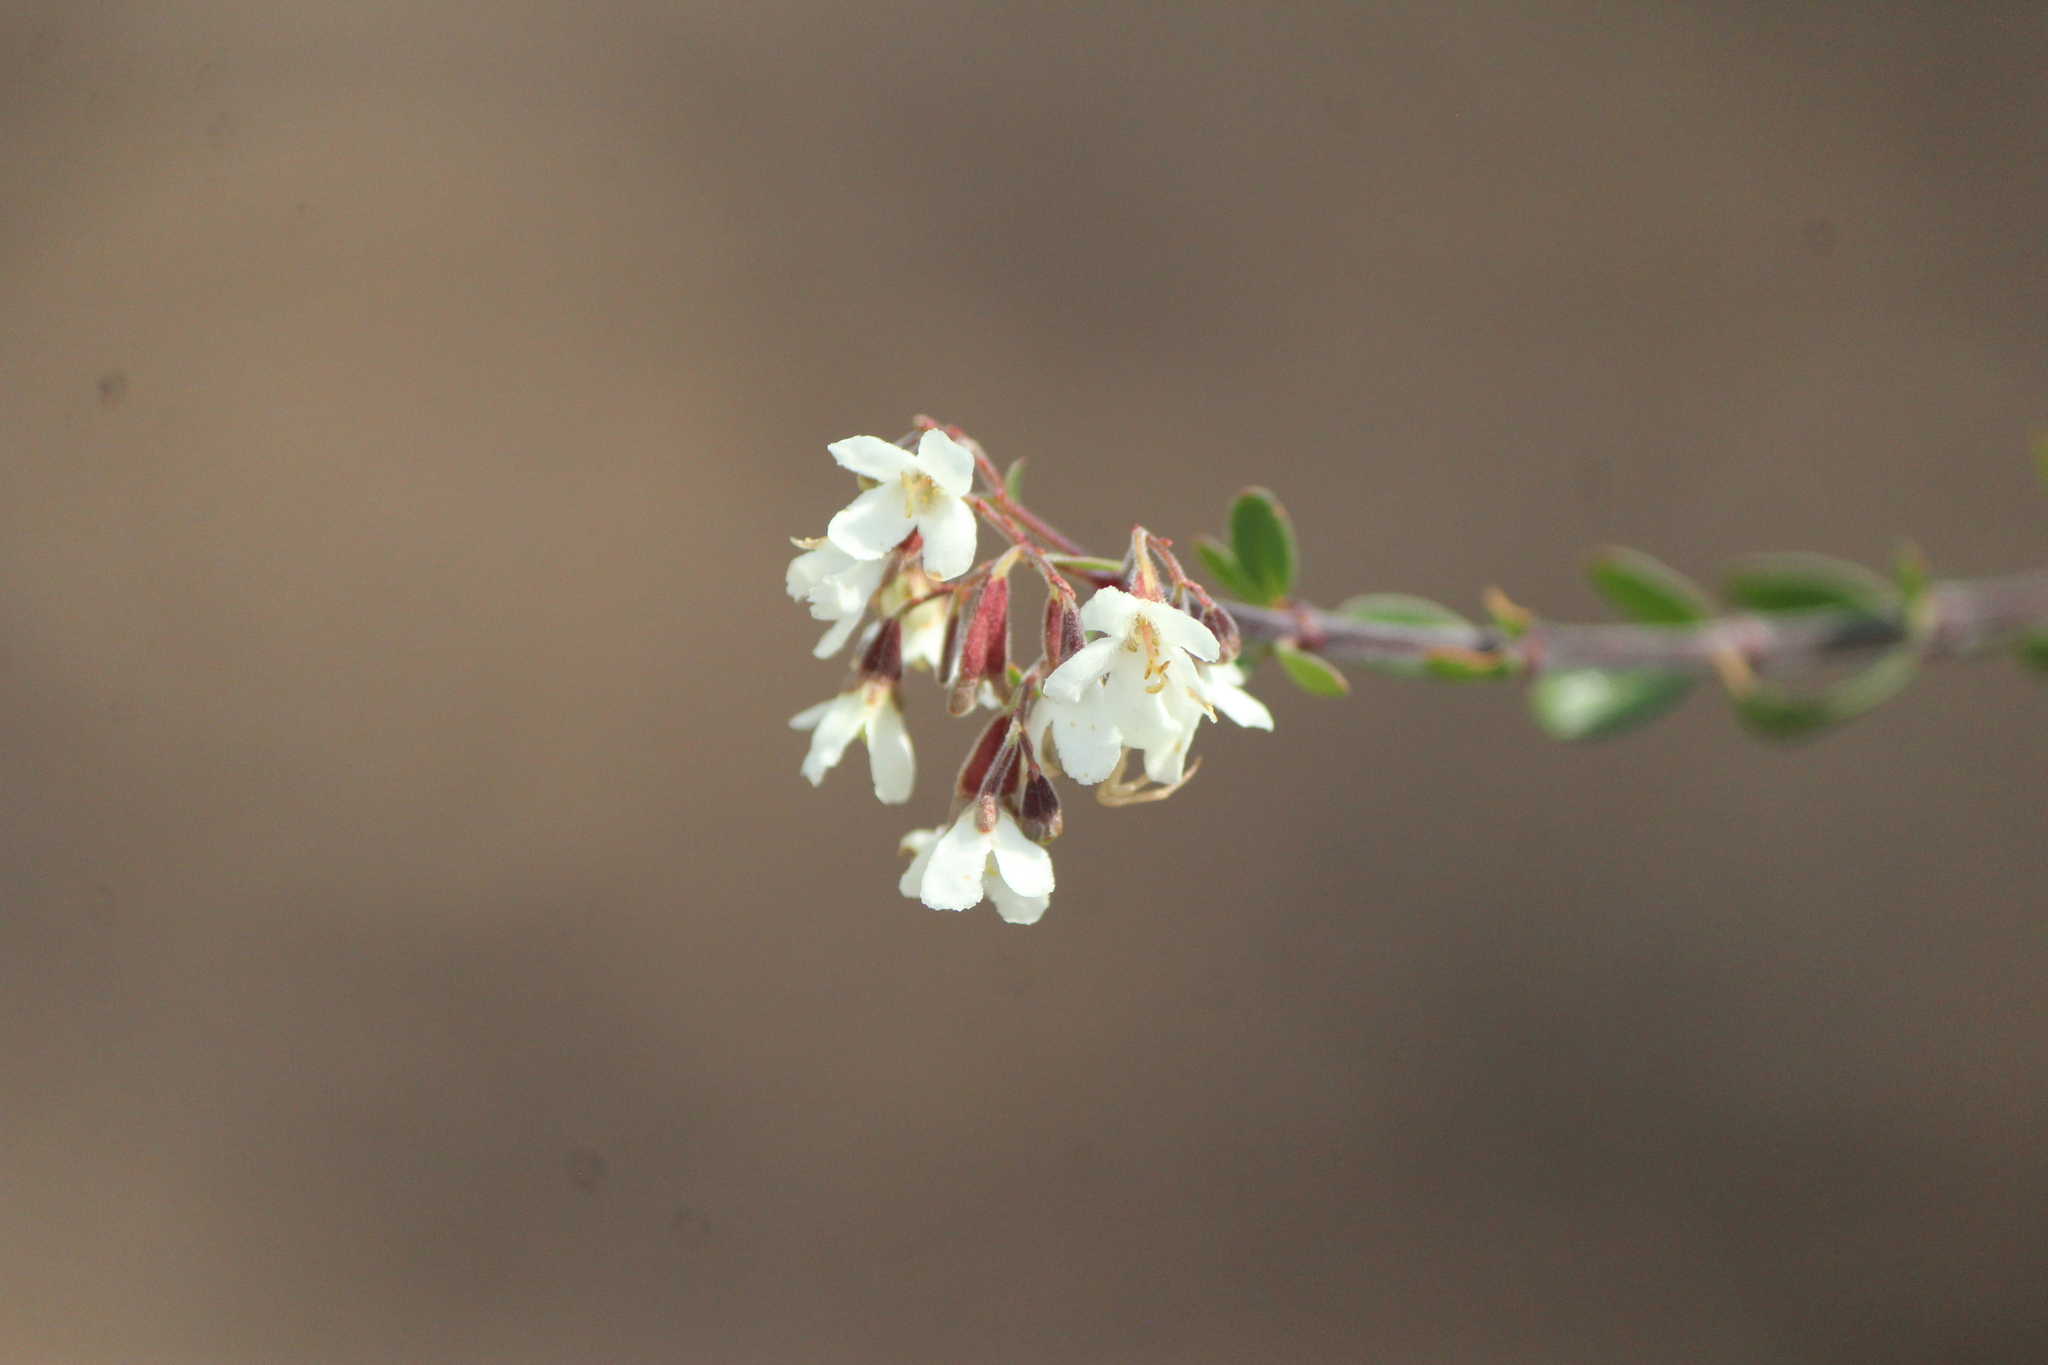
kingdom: Plantae
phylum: Tracheophyta
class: Magnoliopsida
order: Gentianales
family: Rubiaceae
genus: Machaonia
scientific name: Machaonia coulteri
